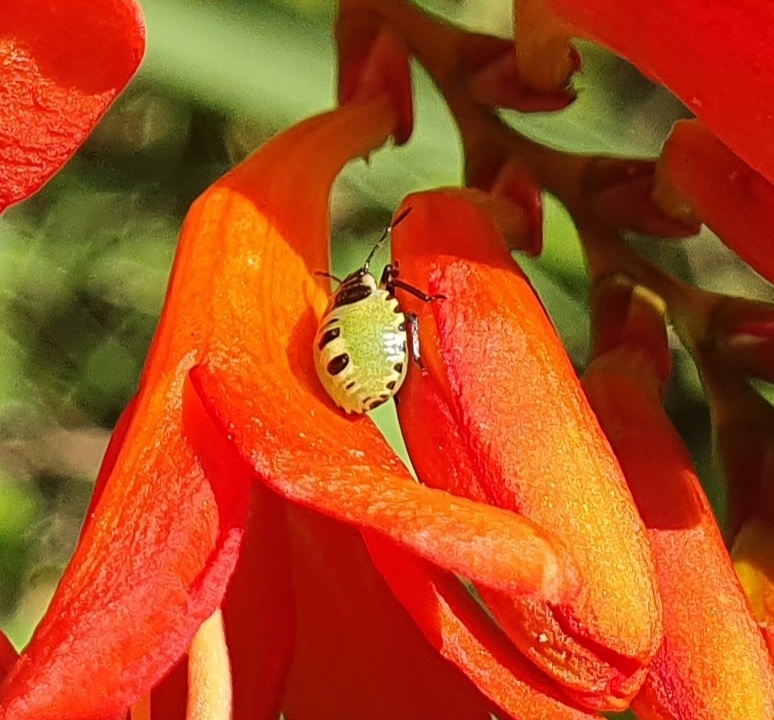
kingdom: Animalia
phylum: Arthropoda
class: Insecta
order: Hemiptera
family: Pentatomidae
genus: Palomena
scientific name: Palomena prasina
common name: Green shieldbug
